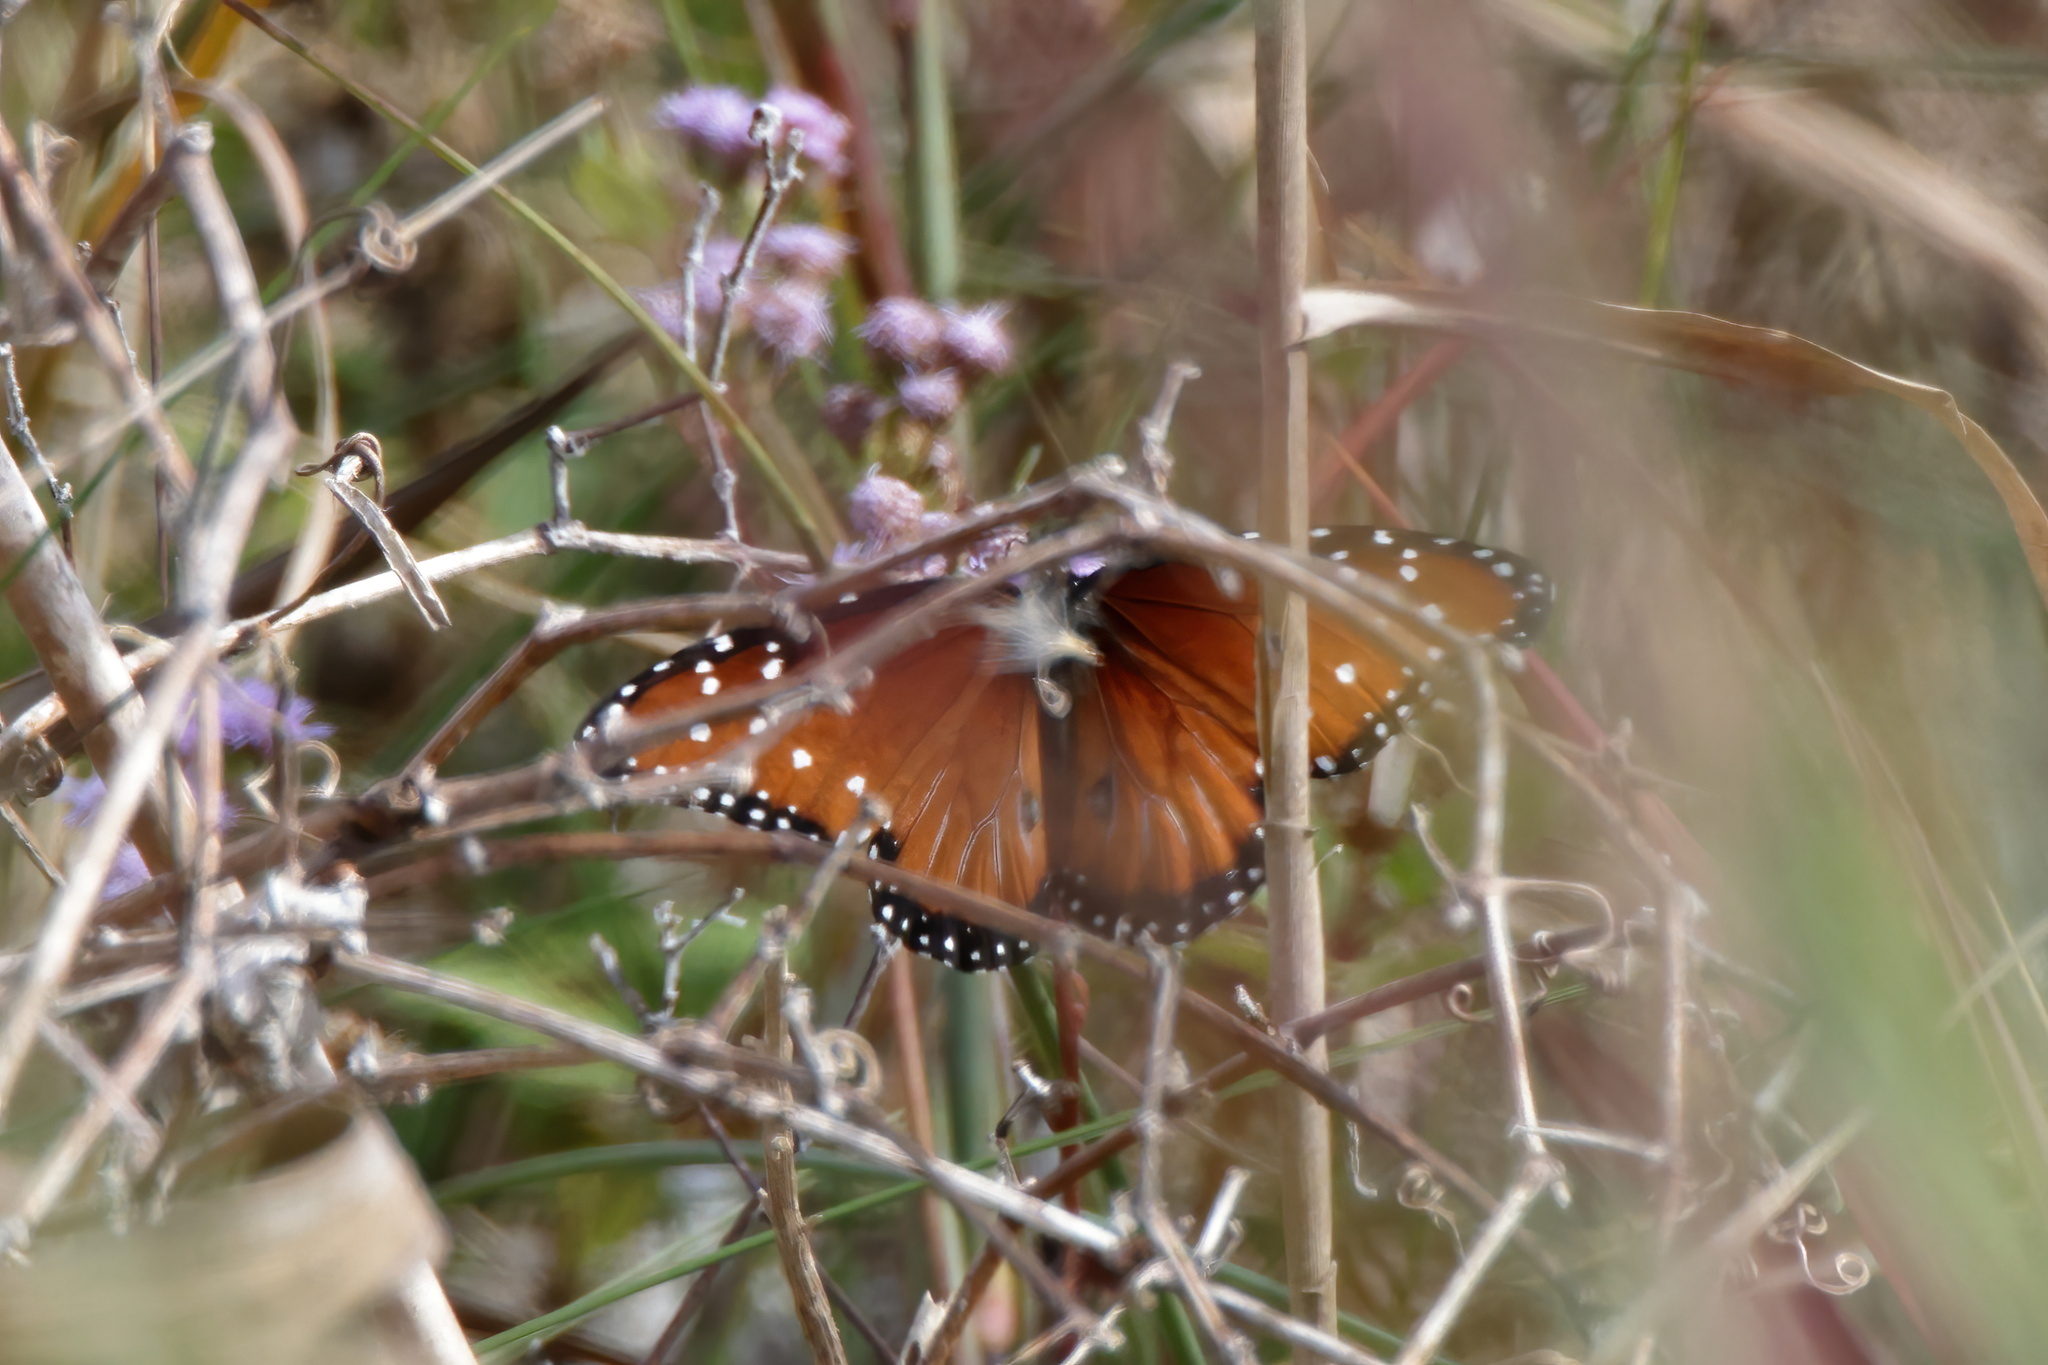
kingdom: Animalia
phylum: Arthropoda
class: Insecta
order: Lepidoptera
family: Nymphalidae
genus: Danaus
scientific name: Danaus gilippus
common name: Queen
